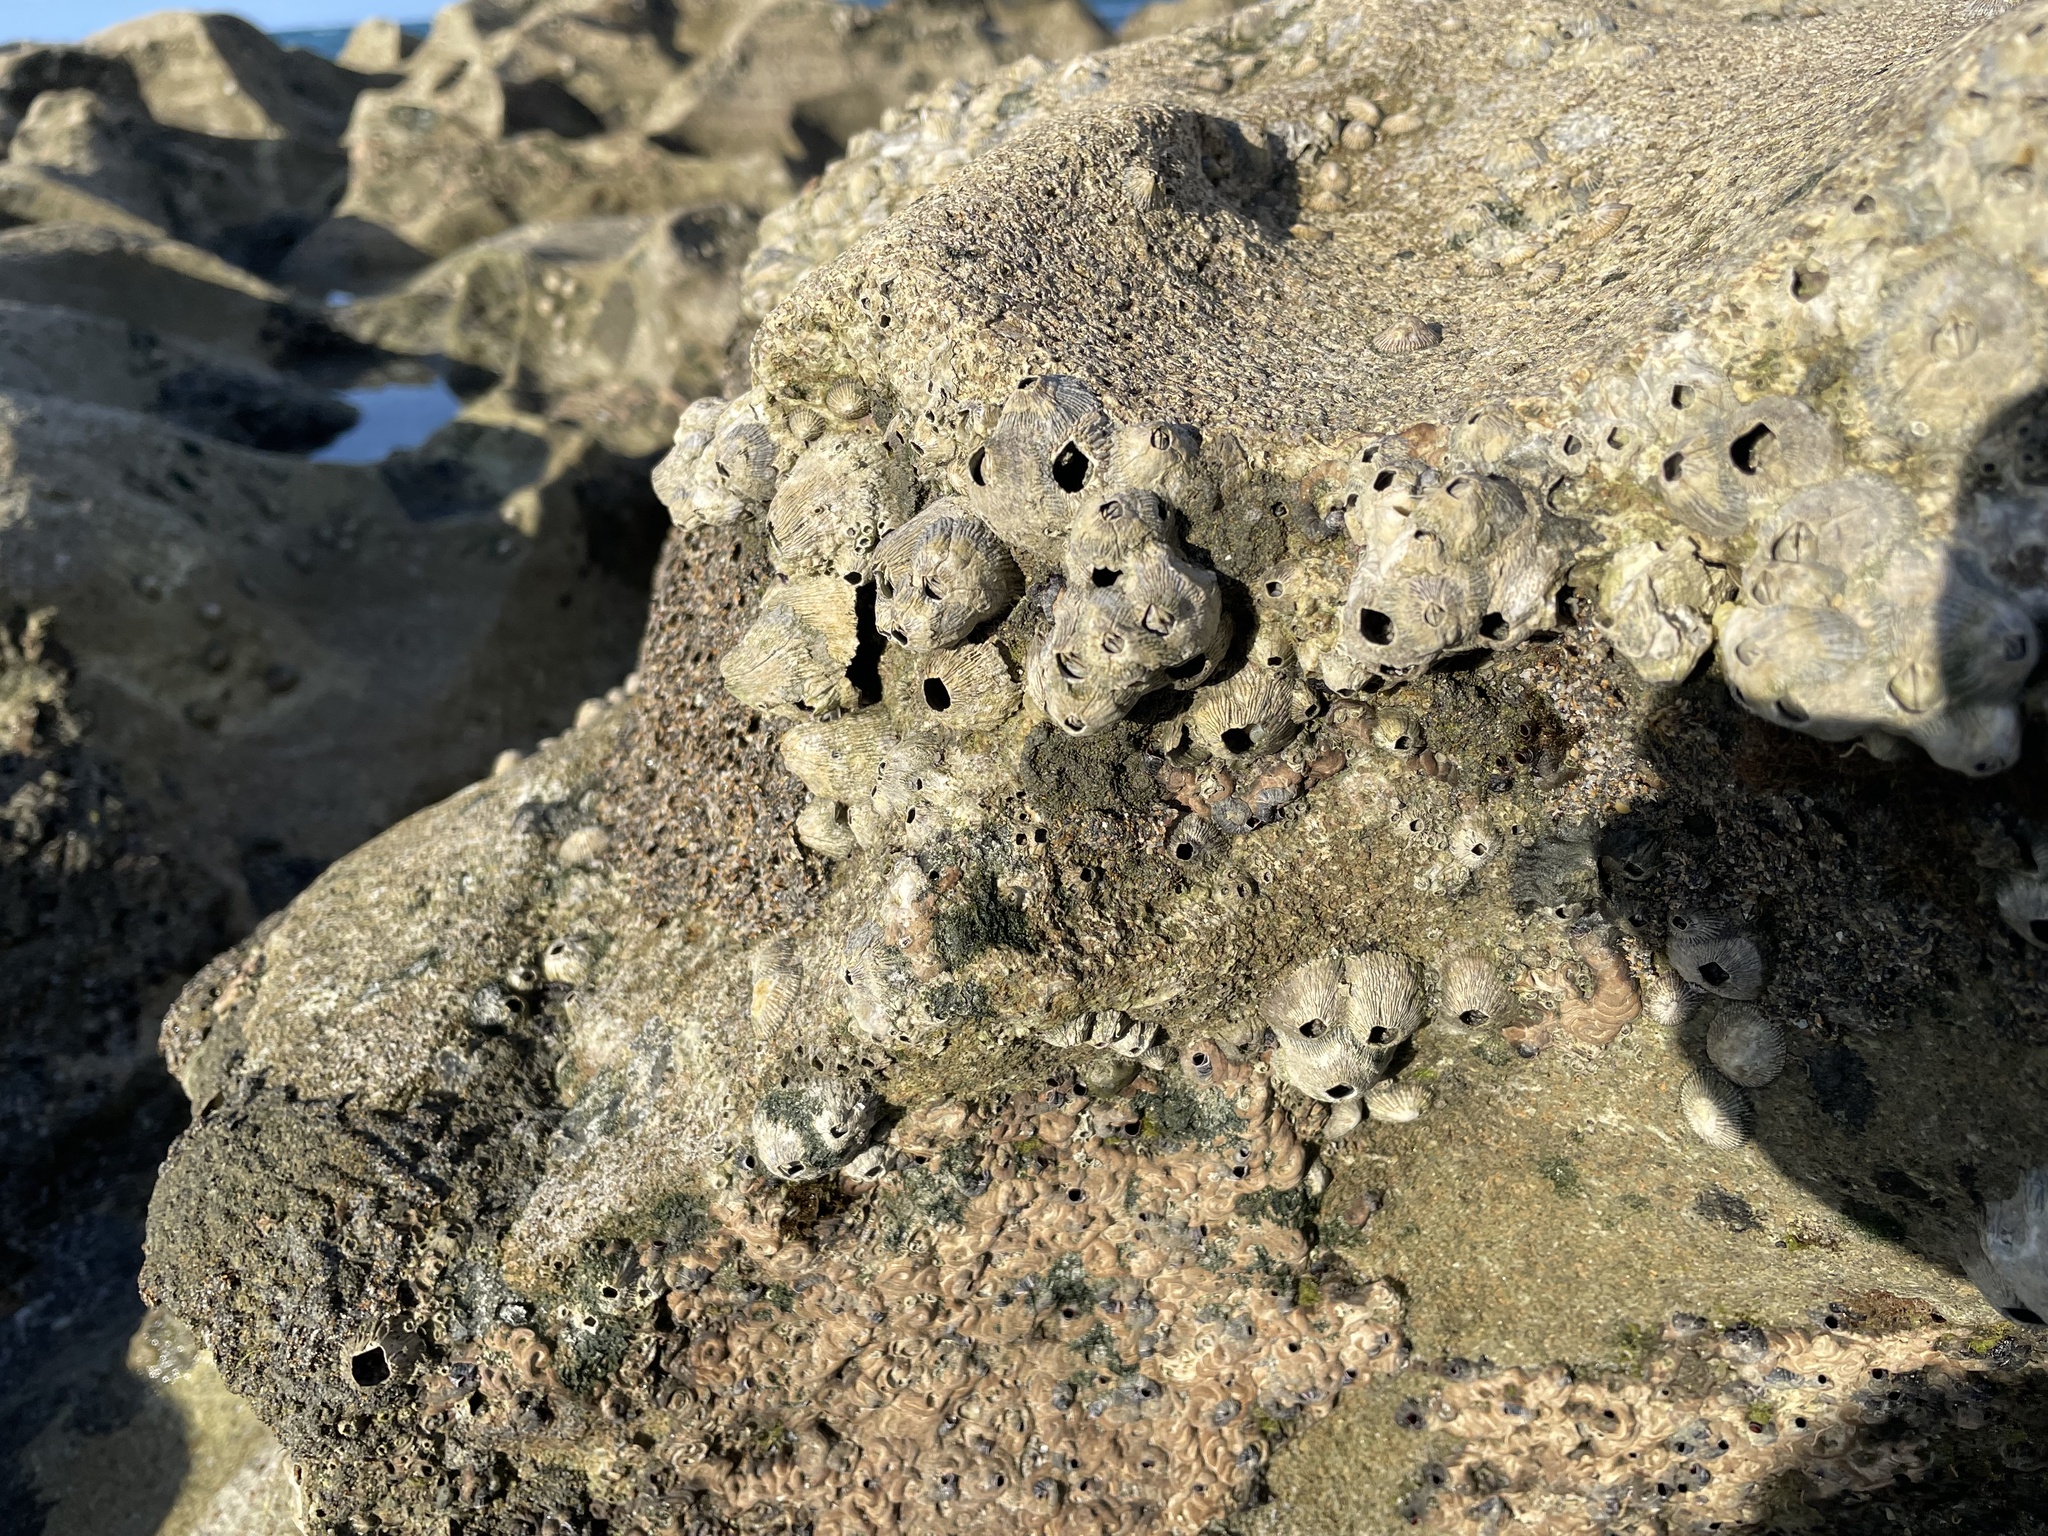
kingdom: Animalia
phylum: Arthropoda
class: Maxillopoda
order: Sessilia
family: Tetraclitidae
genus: Tetraclita
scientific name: Tetraclita stalactifera
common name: Ribbed barnacle
